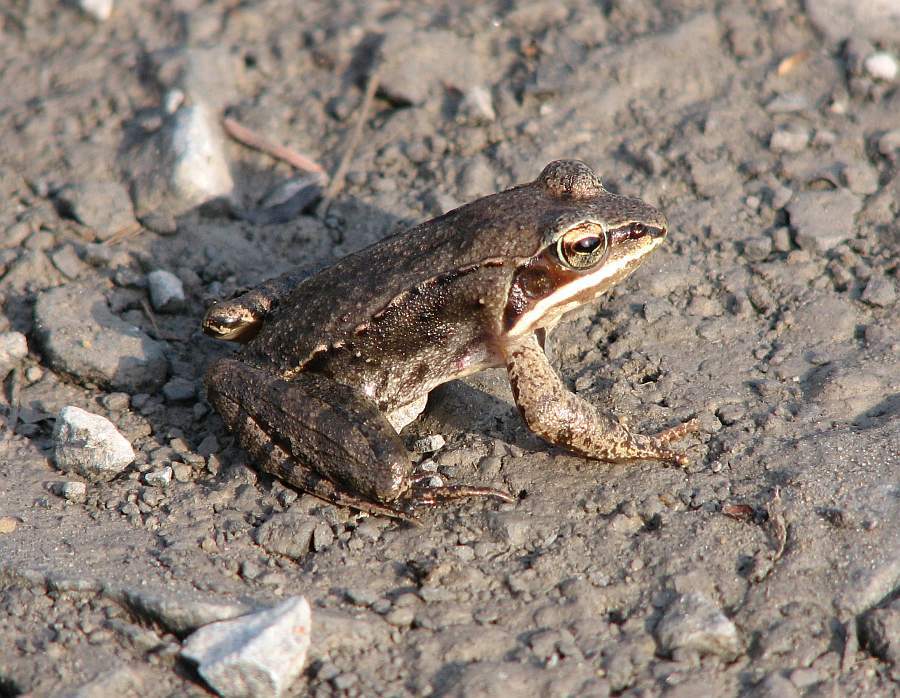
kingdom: Animalia
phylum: Chordata
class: Amphibia
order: Anura
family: Ranidae
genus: Lithobates
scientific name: Lithobates sylvaticus
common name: Wood frog
